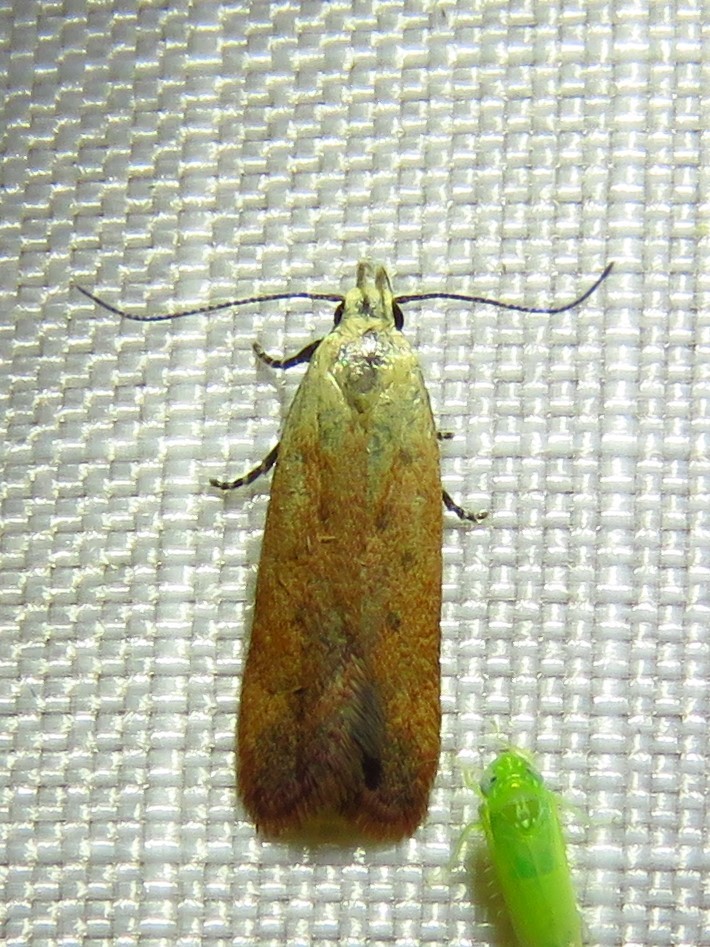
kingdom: Animalia
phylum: Arthropoda
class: Insecta
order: Lepidoptera
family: Gelechiidae
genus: Anacampsis
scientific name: Anacampsis fullonella
